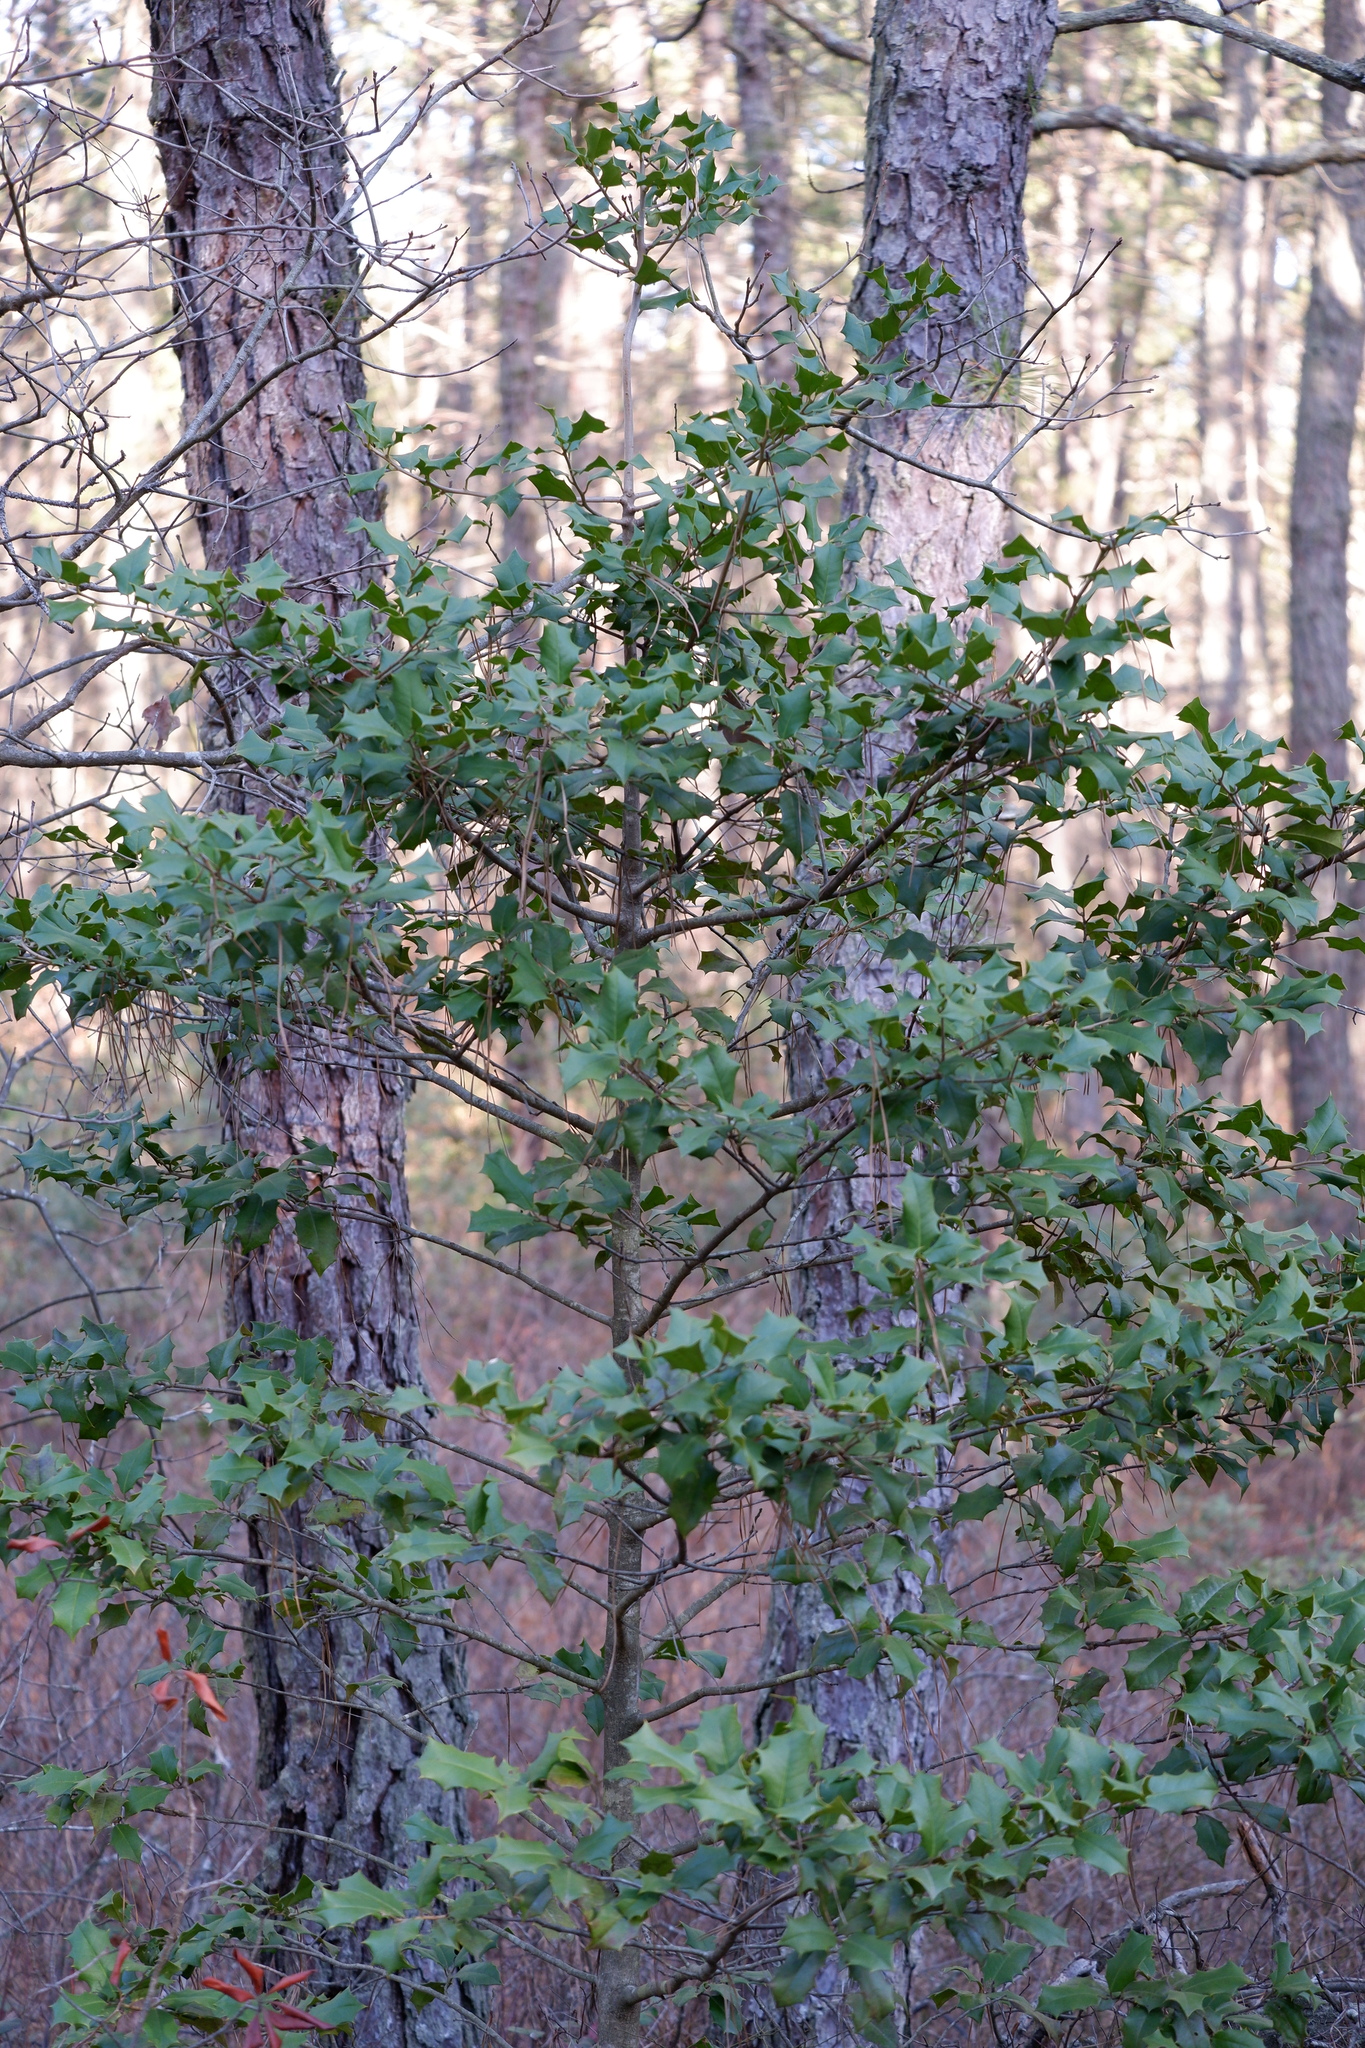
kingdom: Plantae
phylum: Tracheophyta
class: Magnoliopsida
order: Aquifoliales
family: Aquifoliaceae
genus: Ilex
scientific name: Ilex opaca
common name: American holly
